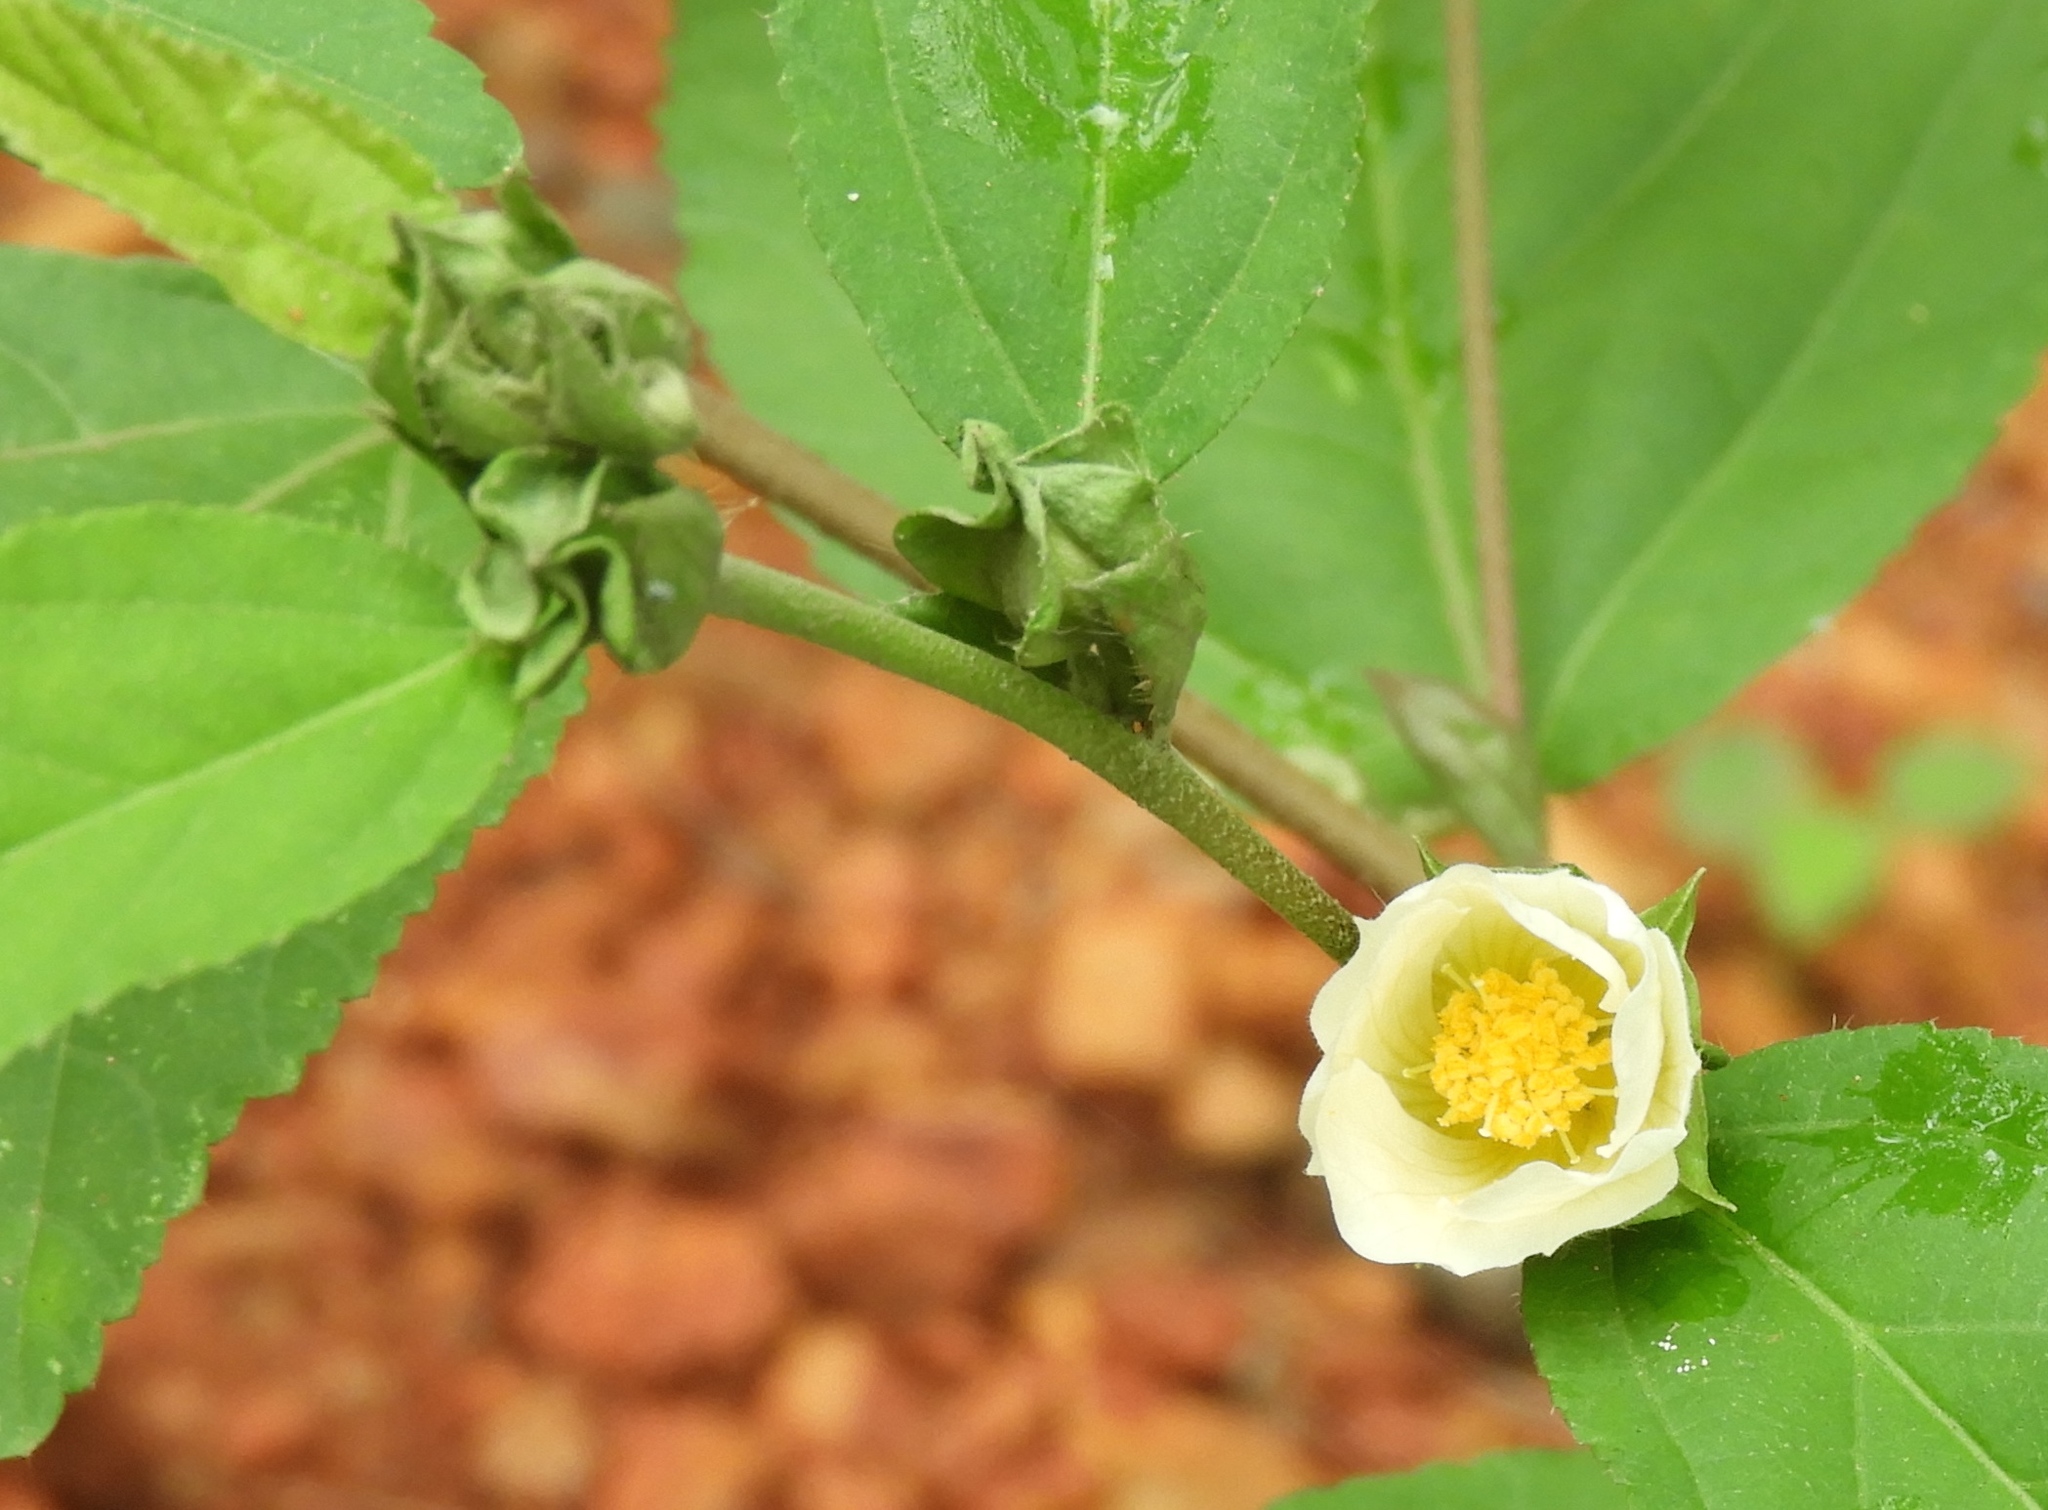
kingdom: Plantae
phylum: Tracheophyta
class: Magnoliopsida
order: Malvales
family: Malvaceae
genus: Sida
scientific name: Sida acuta
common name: Common wireweed
